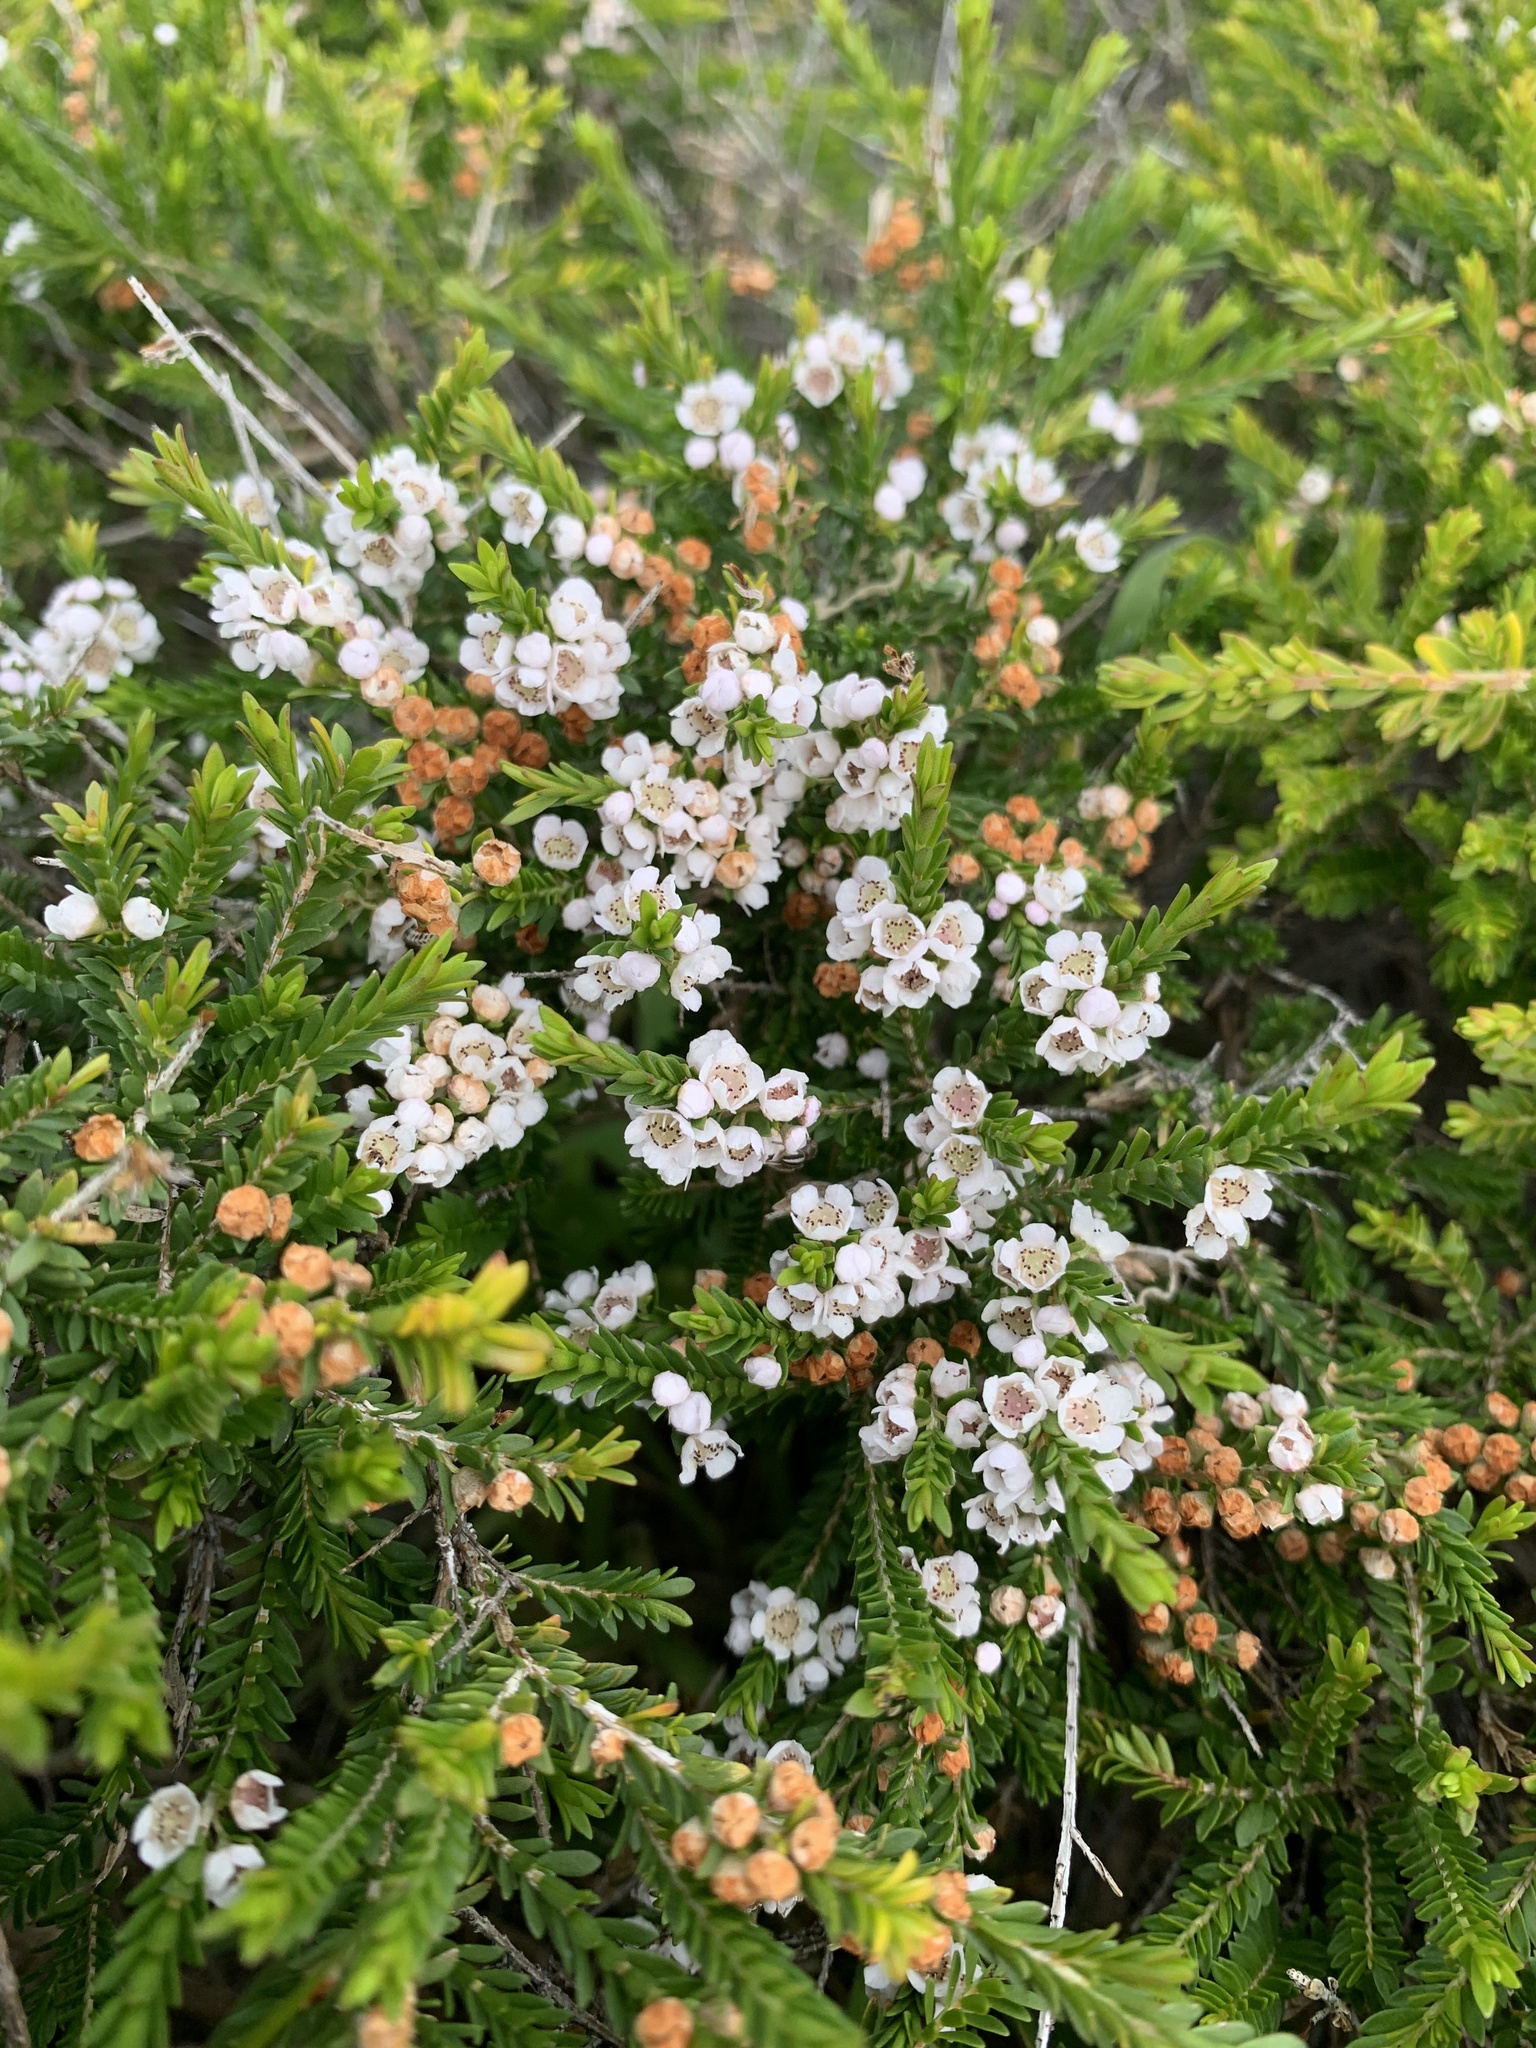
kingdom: Plantae
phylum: Tracheophyta
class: Magnoliopsida
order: Myrtales
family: Myrtaceae
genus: Thryptomene
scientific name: Thryptomene saxicola
